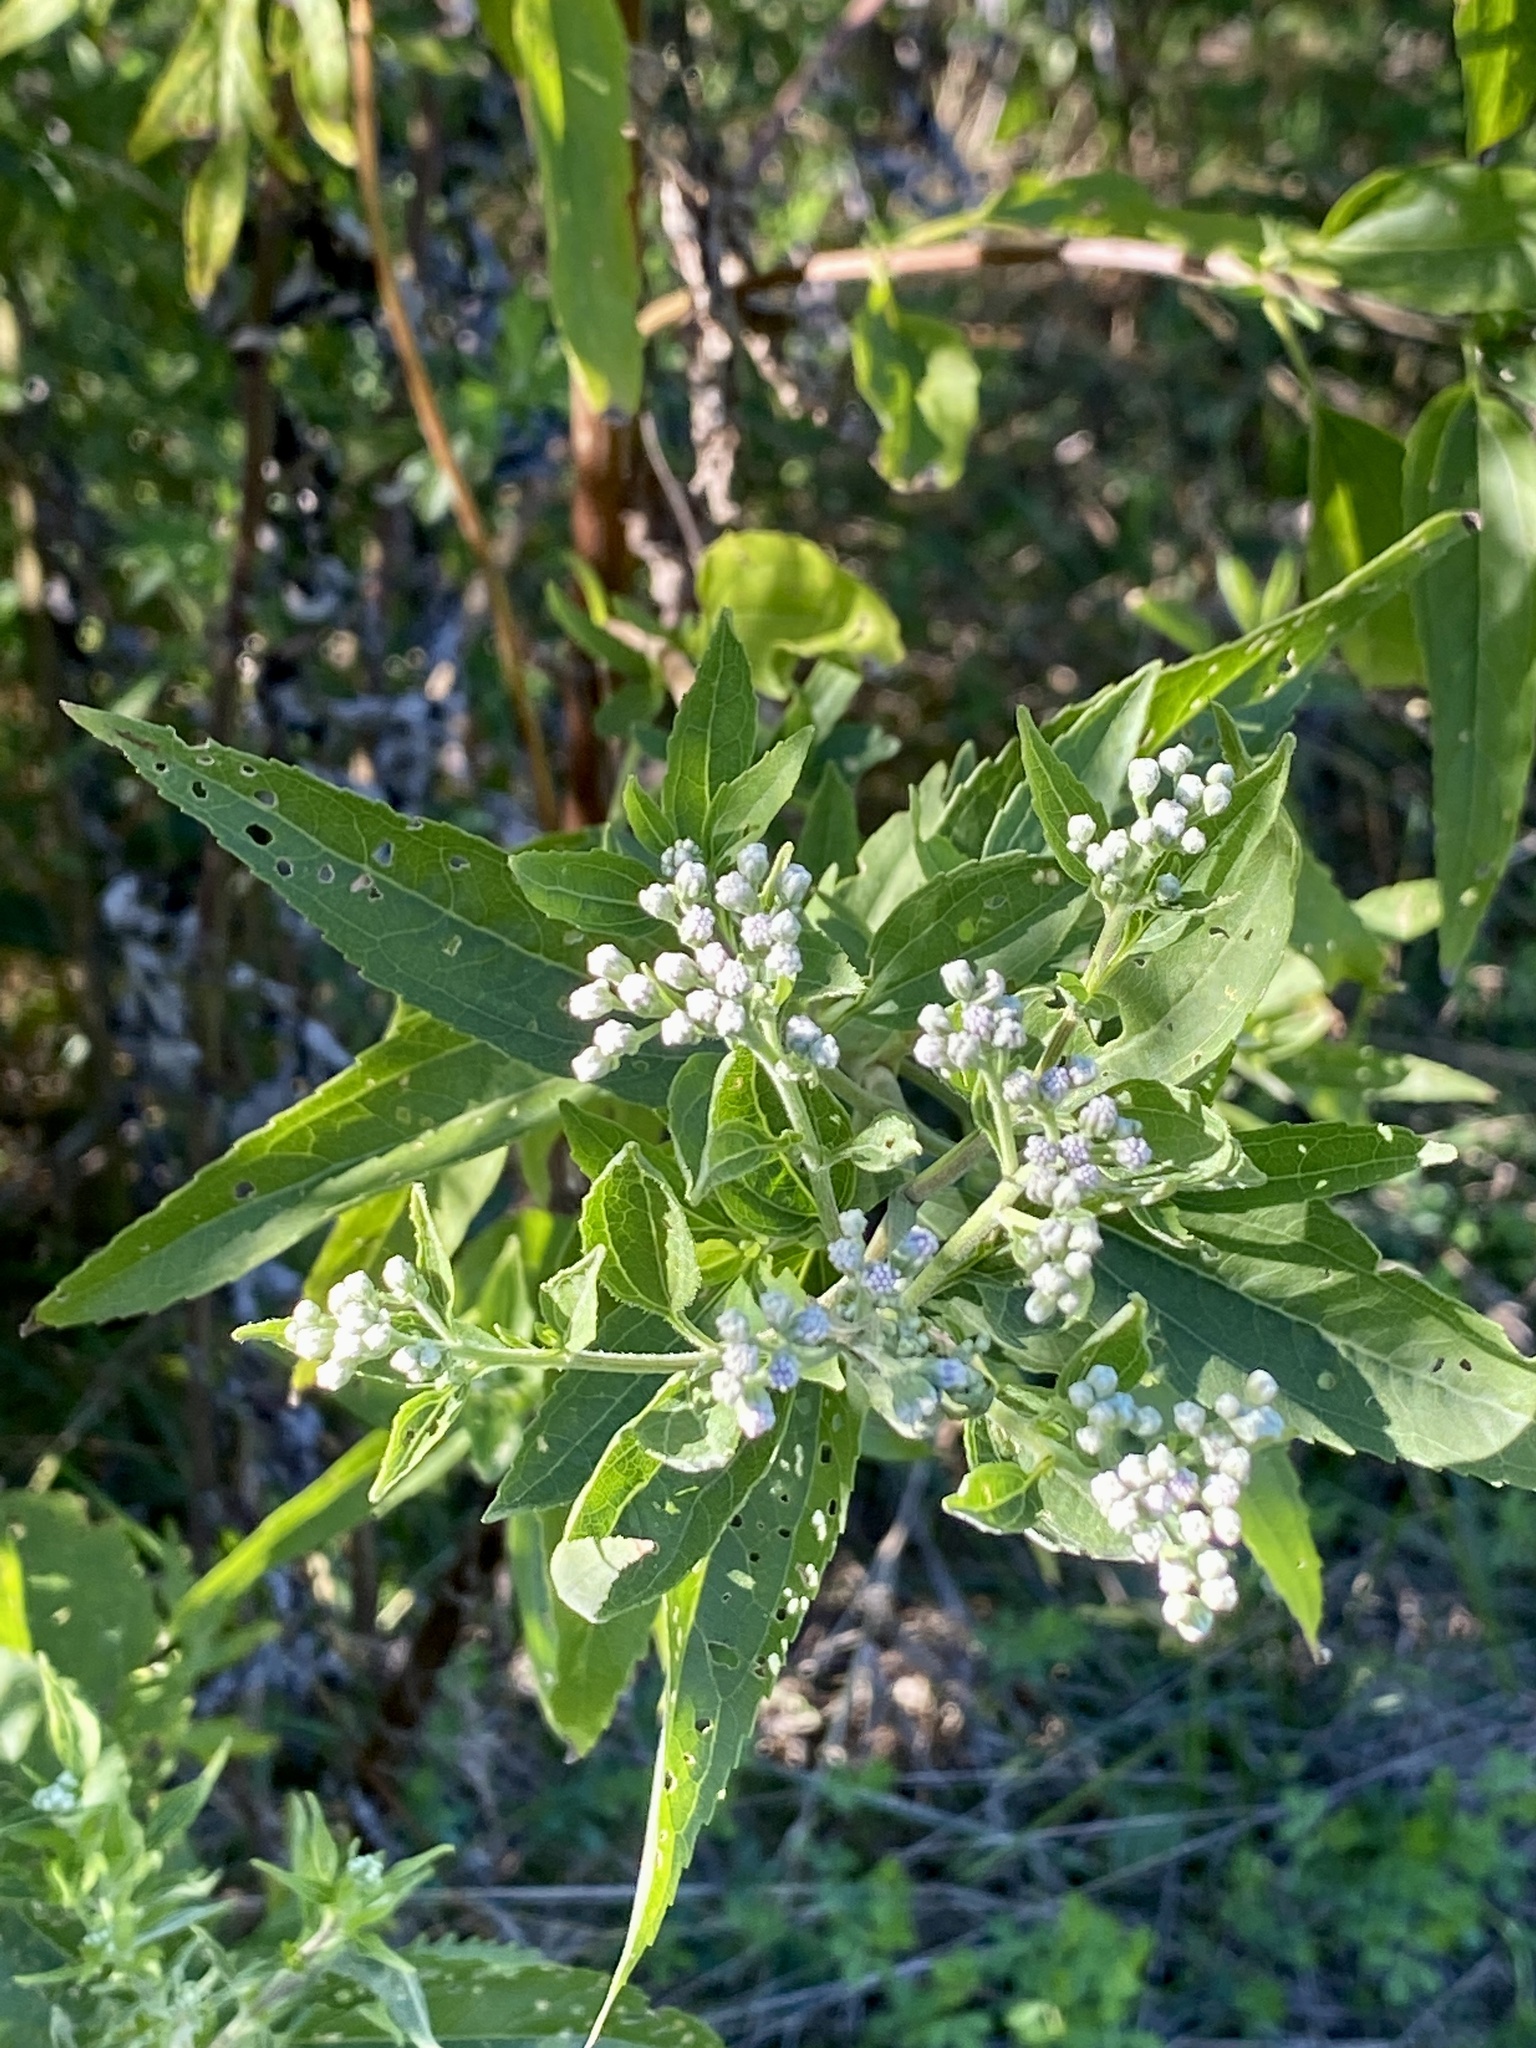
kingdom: Plantae
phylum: Tracheophyta
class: Magnoliopsida
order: Asterales
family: Asteraceae
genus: Eupatorium
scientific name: Eupatorium serotinum
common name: Late boneset
